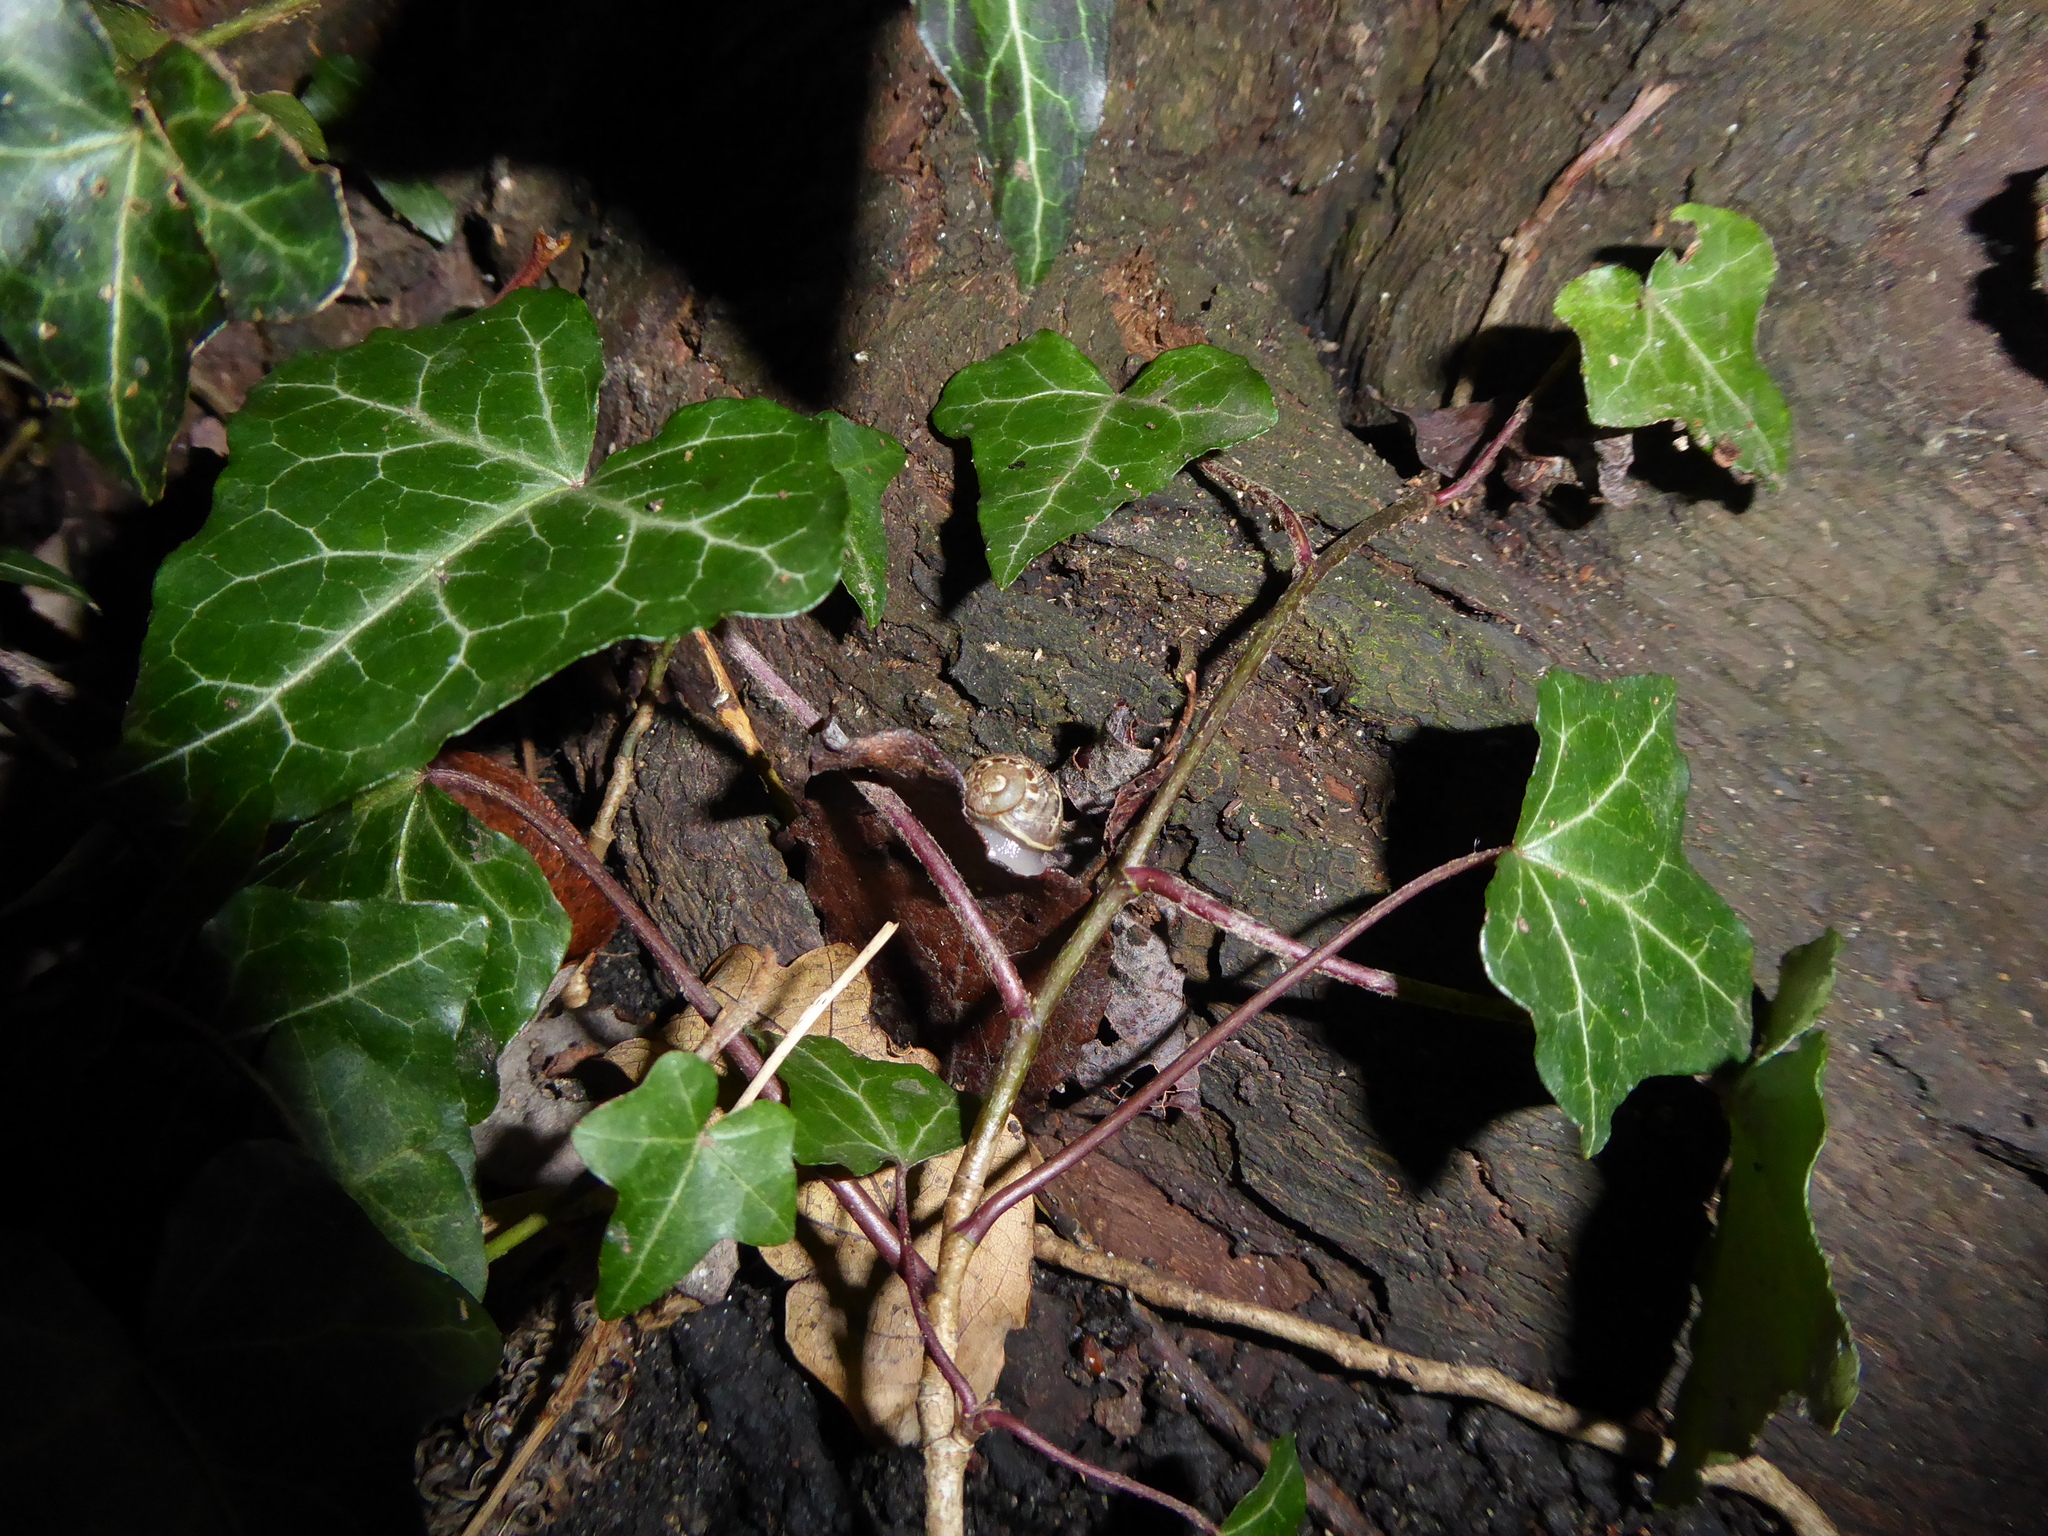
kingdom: Animalia
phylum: Mollusca
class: Gastropoda
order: Stylommatophora
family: Helicidae
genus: Cornu
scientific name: Cornu aspersum
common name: Brown garden snail
